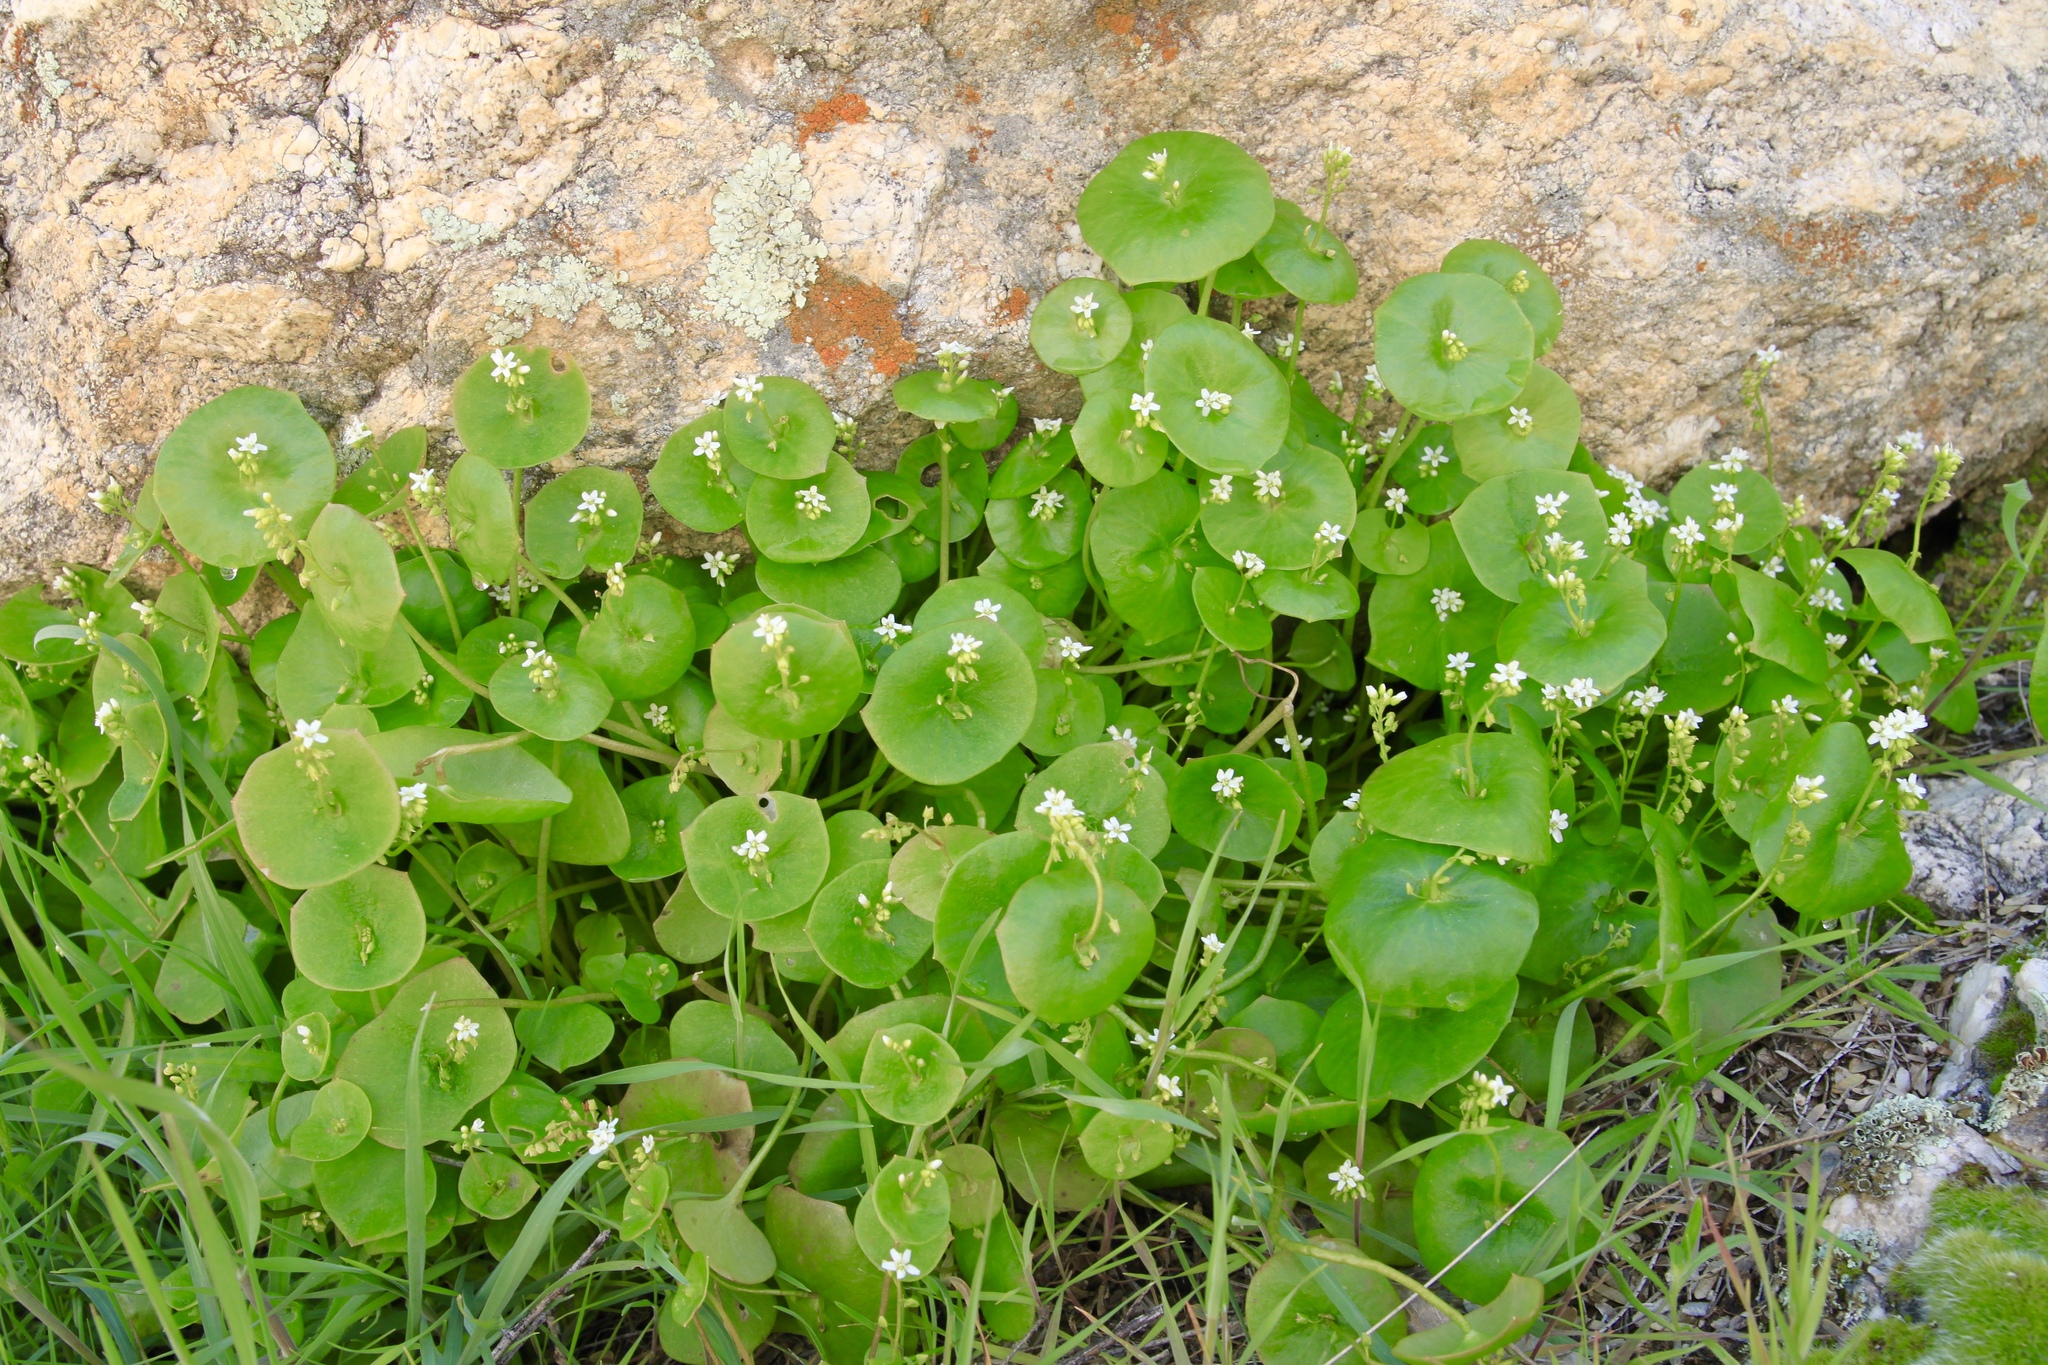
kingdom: Plantae
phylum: Tracheophyta
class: Magnoliopsida
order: Caryophyllales
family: Montiaceae
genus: Claytonia
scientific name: Claytonia perfoliata
